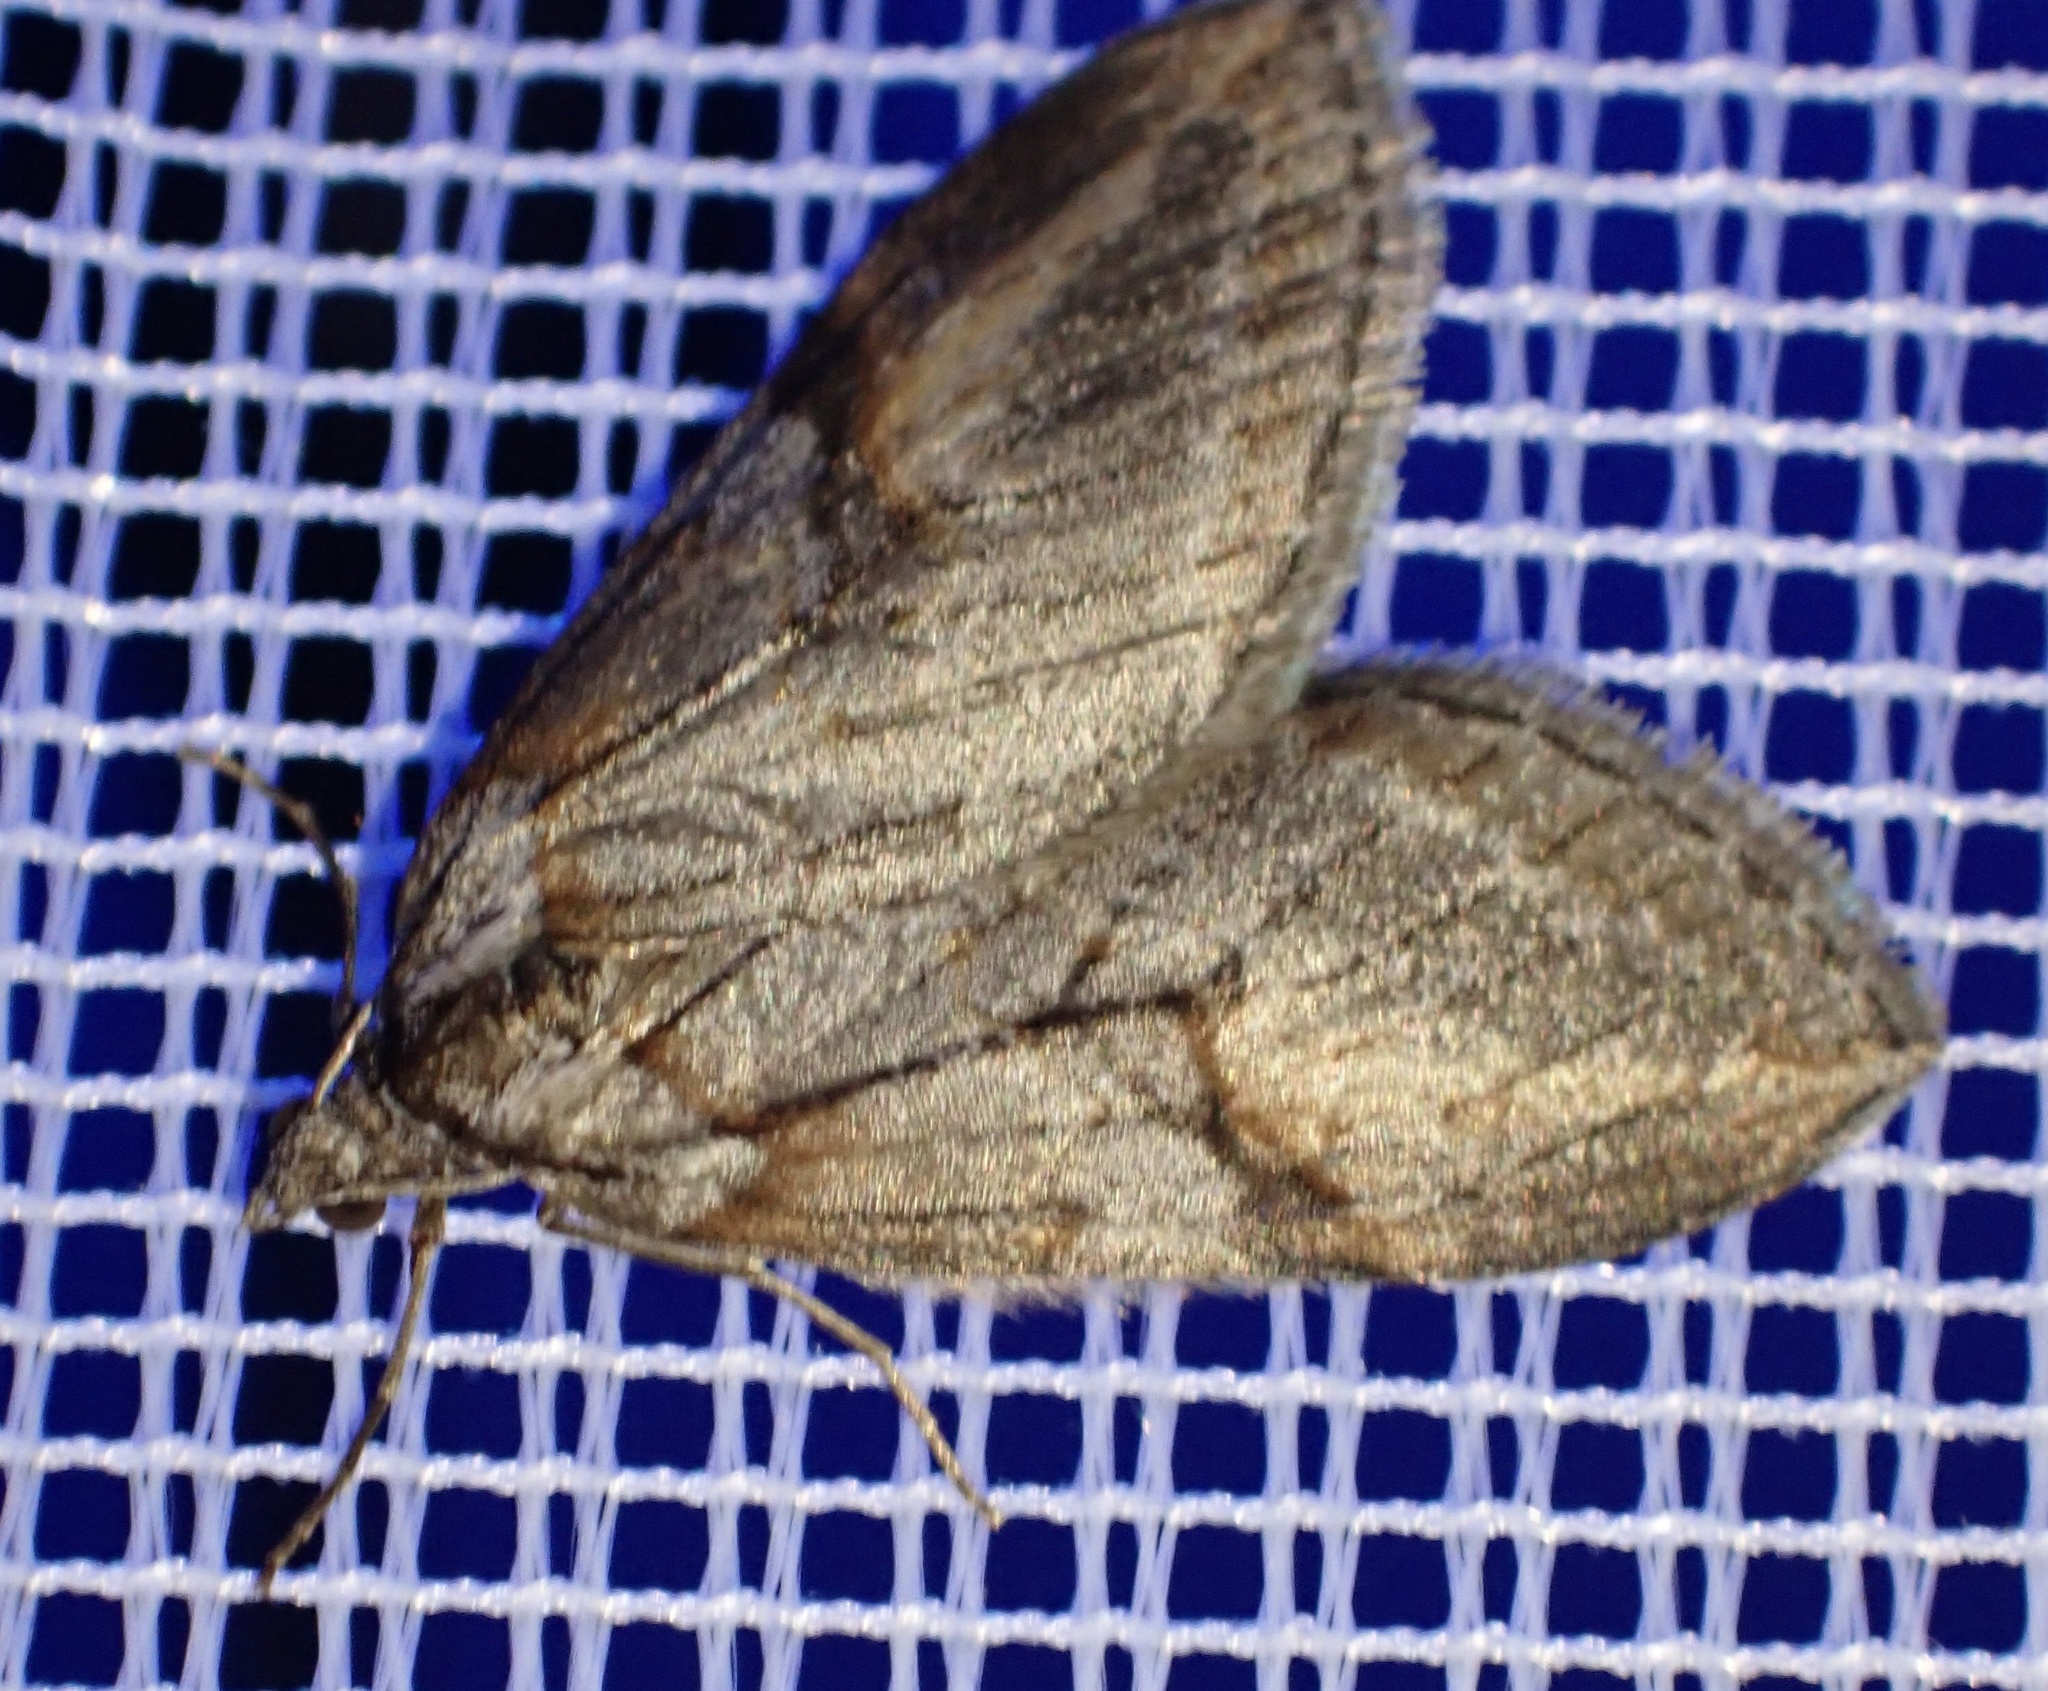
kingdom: Animalia
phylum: Arthropoda
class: Insecta
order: Lepidoptera
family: Geometridae
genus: Chesias
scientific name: Chesias rufata
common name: Broom-tip
